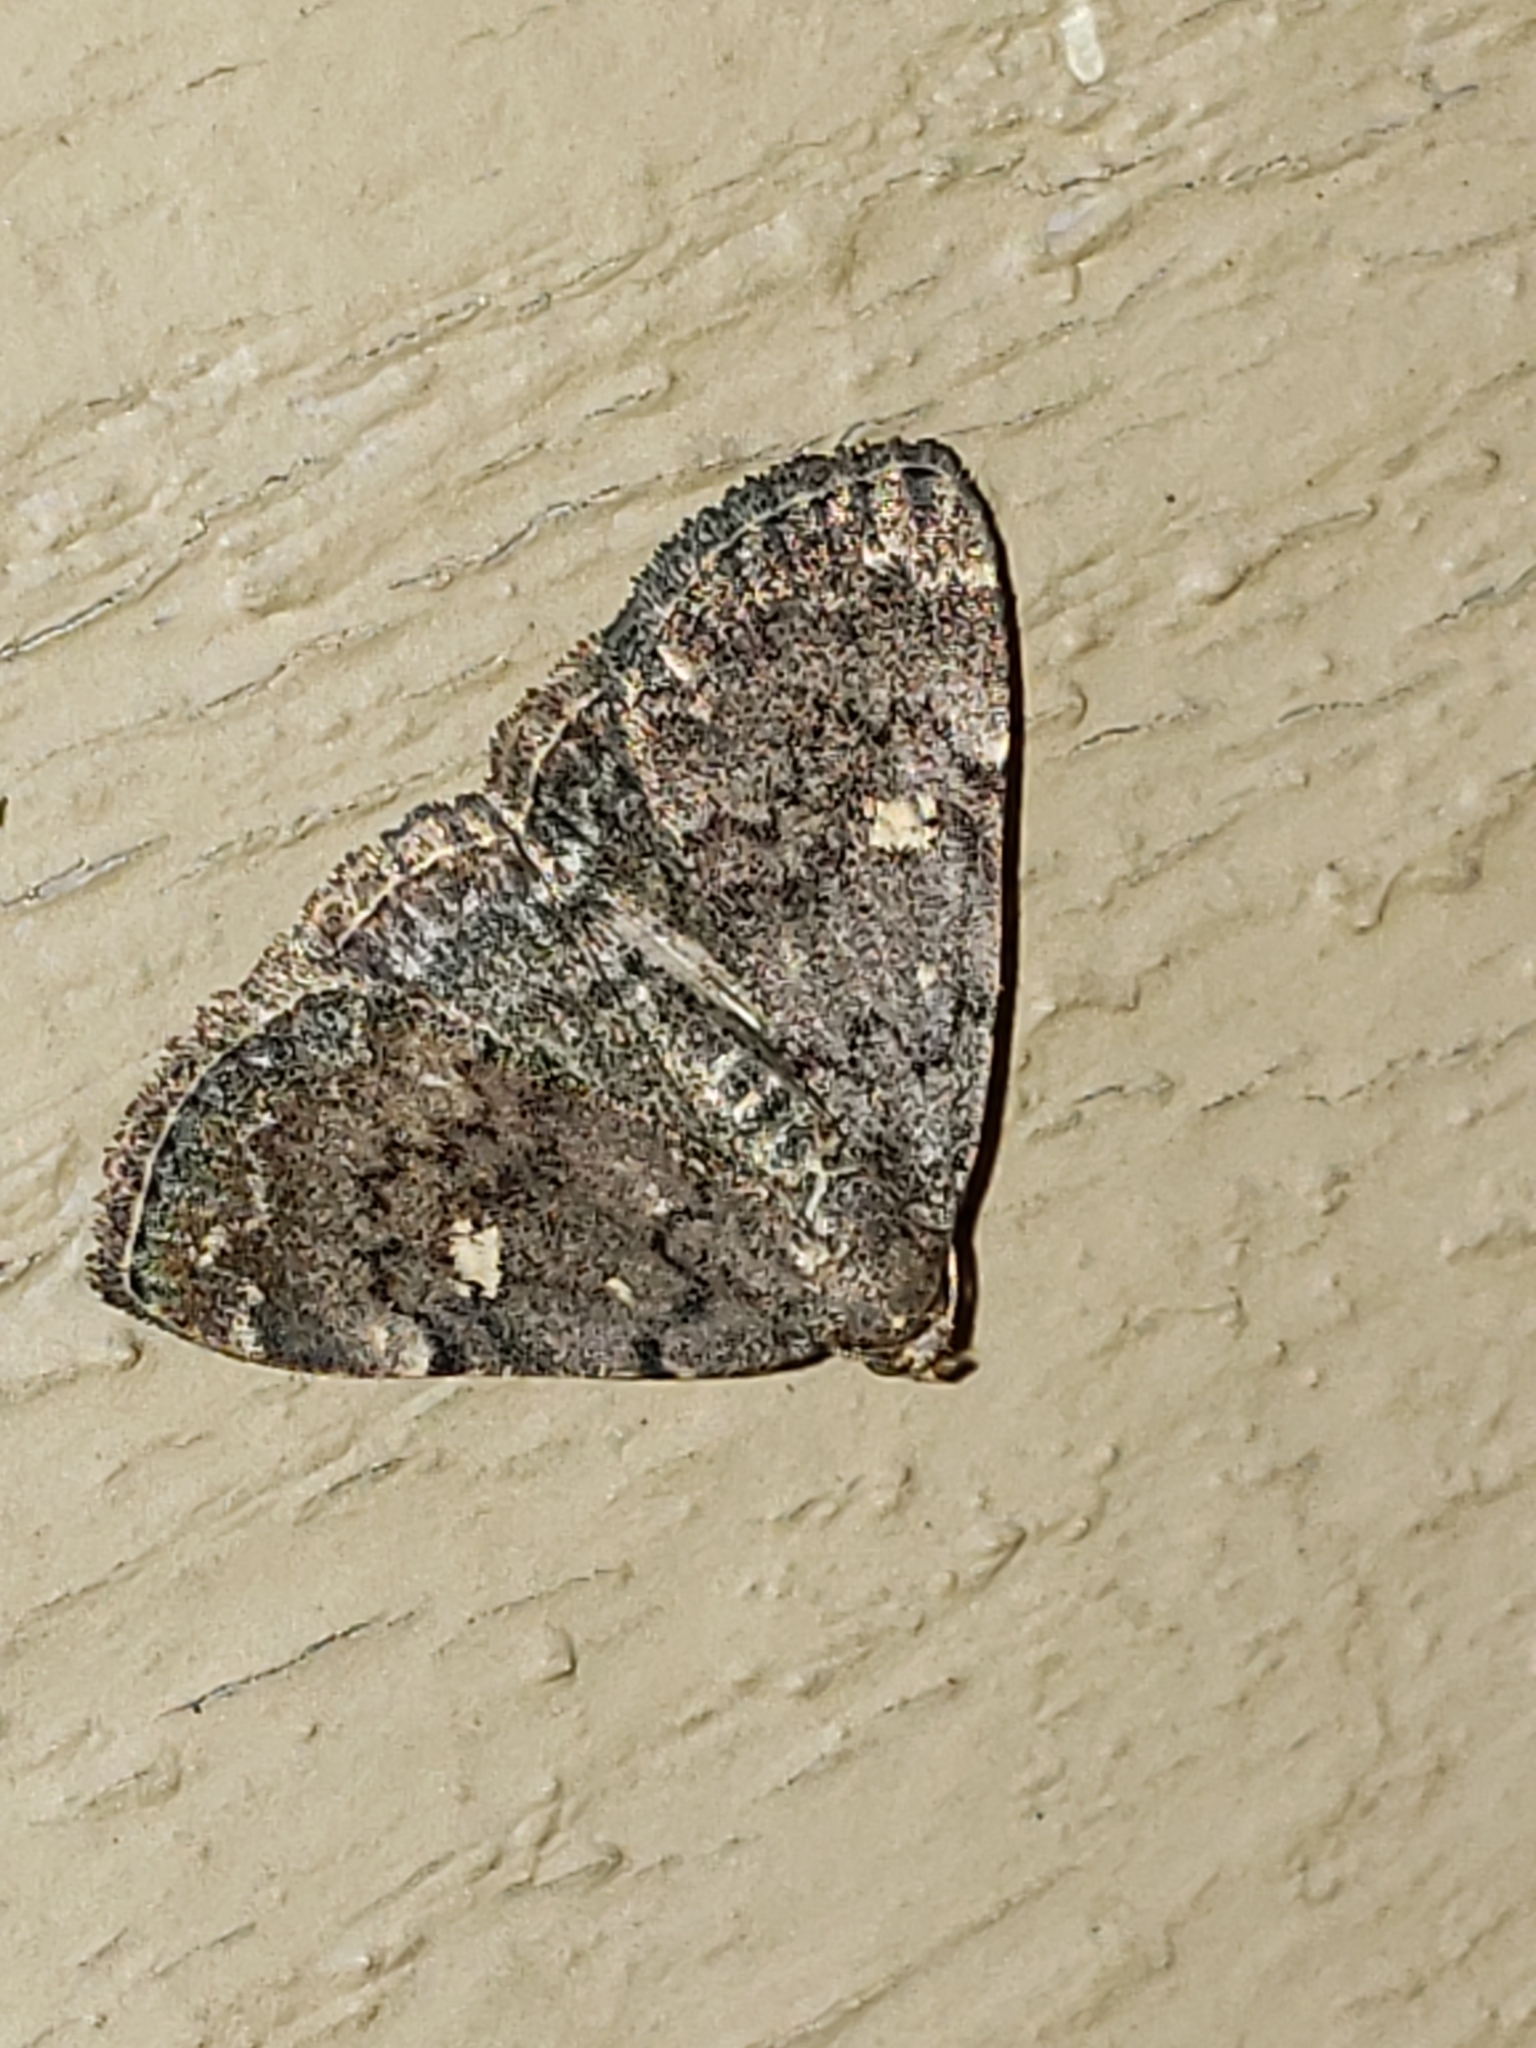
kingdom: Animalia
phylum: Arthropoda
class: Insecta
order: Lepidoptera
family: Erebidae
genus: Idia
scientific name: Idia aemula
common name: Common idia moth
